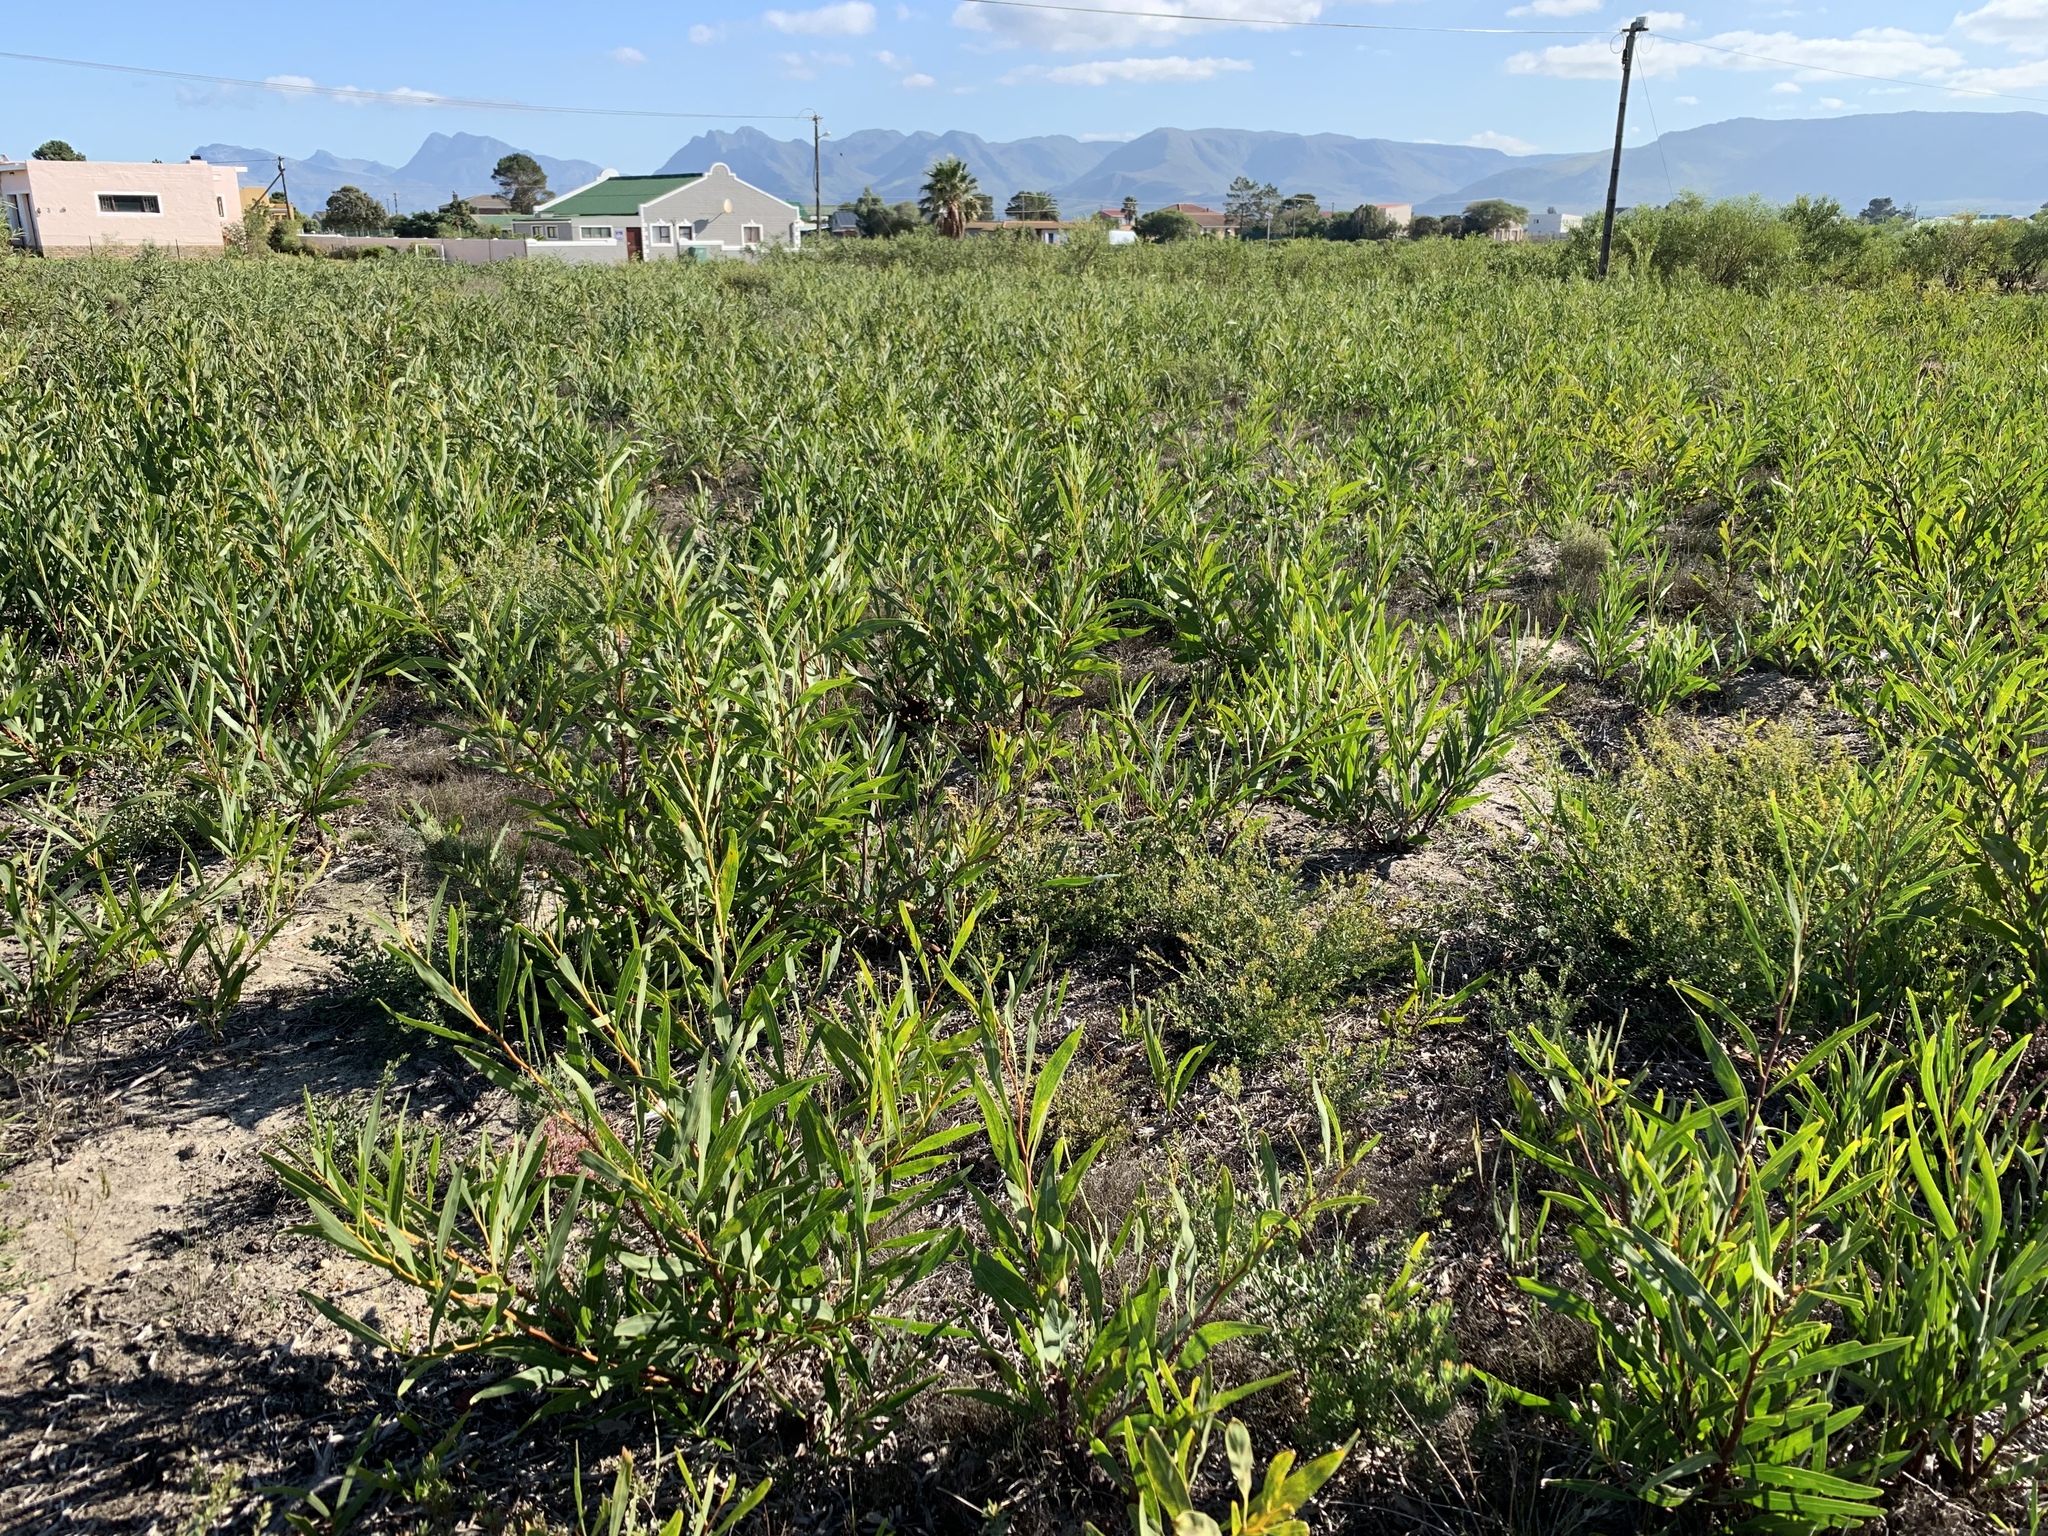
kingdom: Plantae
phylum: Tracheophyta
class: Magnoliopsida
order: Fabales
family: Fabaceae
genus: Acacia
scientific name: Acacia saligna
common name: Orange wattle
